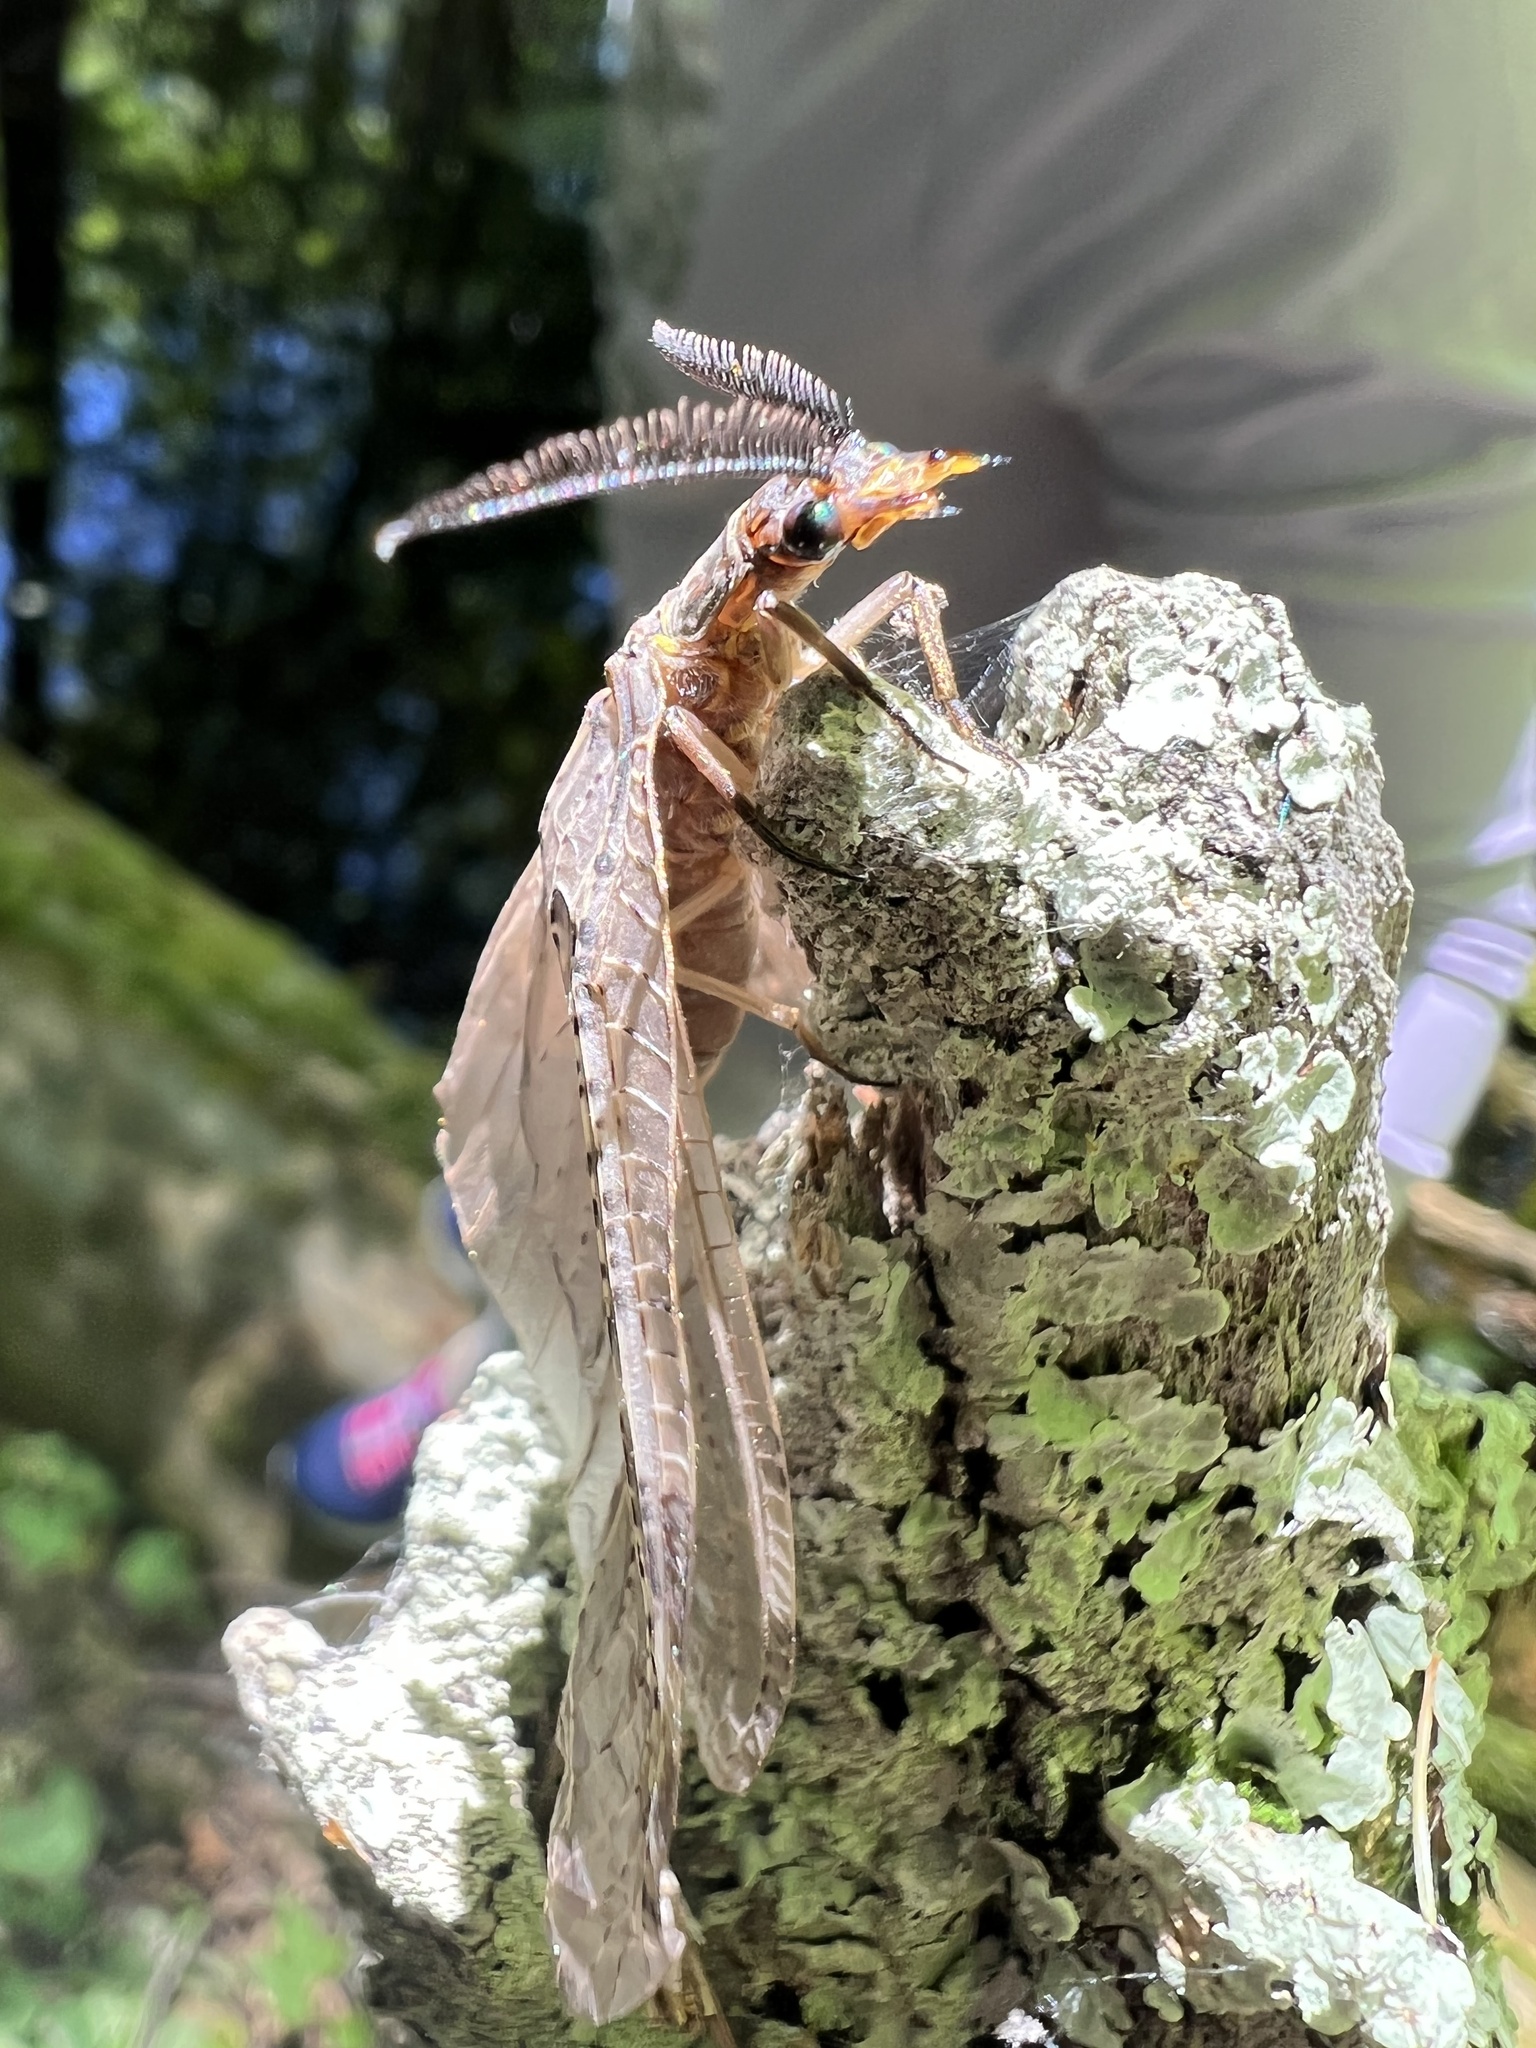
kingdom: Animalia
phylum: Arthropoda
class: Insecta
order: Megaloptera
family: Corydalidae
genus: Chauliodes
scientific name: Chauliodes pectinicornis
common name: Summer fishfly
